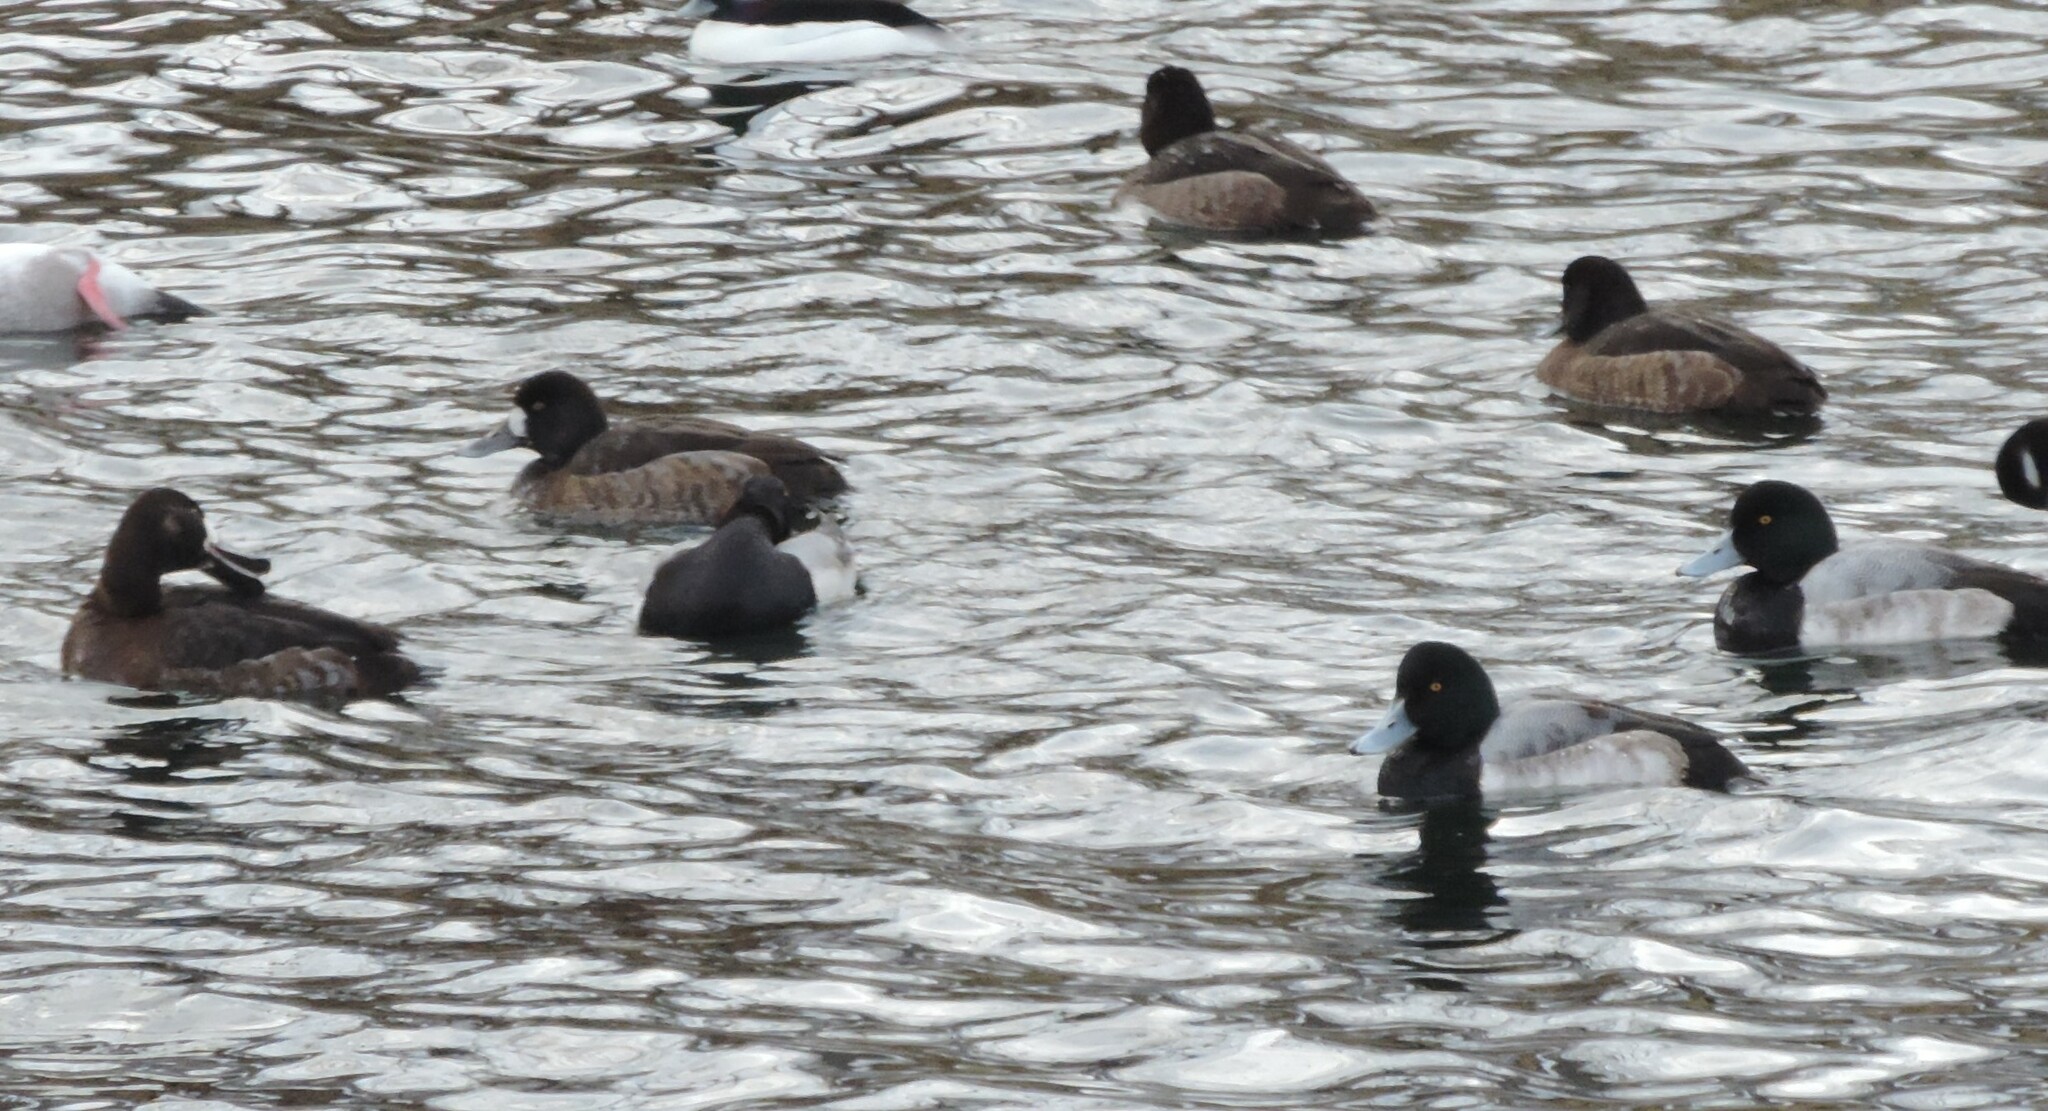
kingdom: Animalia
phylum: Chordata
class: Aves
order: Anseriformes
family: Anatidae
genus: Aythya
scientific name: Aythya marila
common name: Greater scaup
